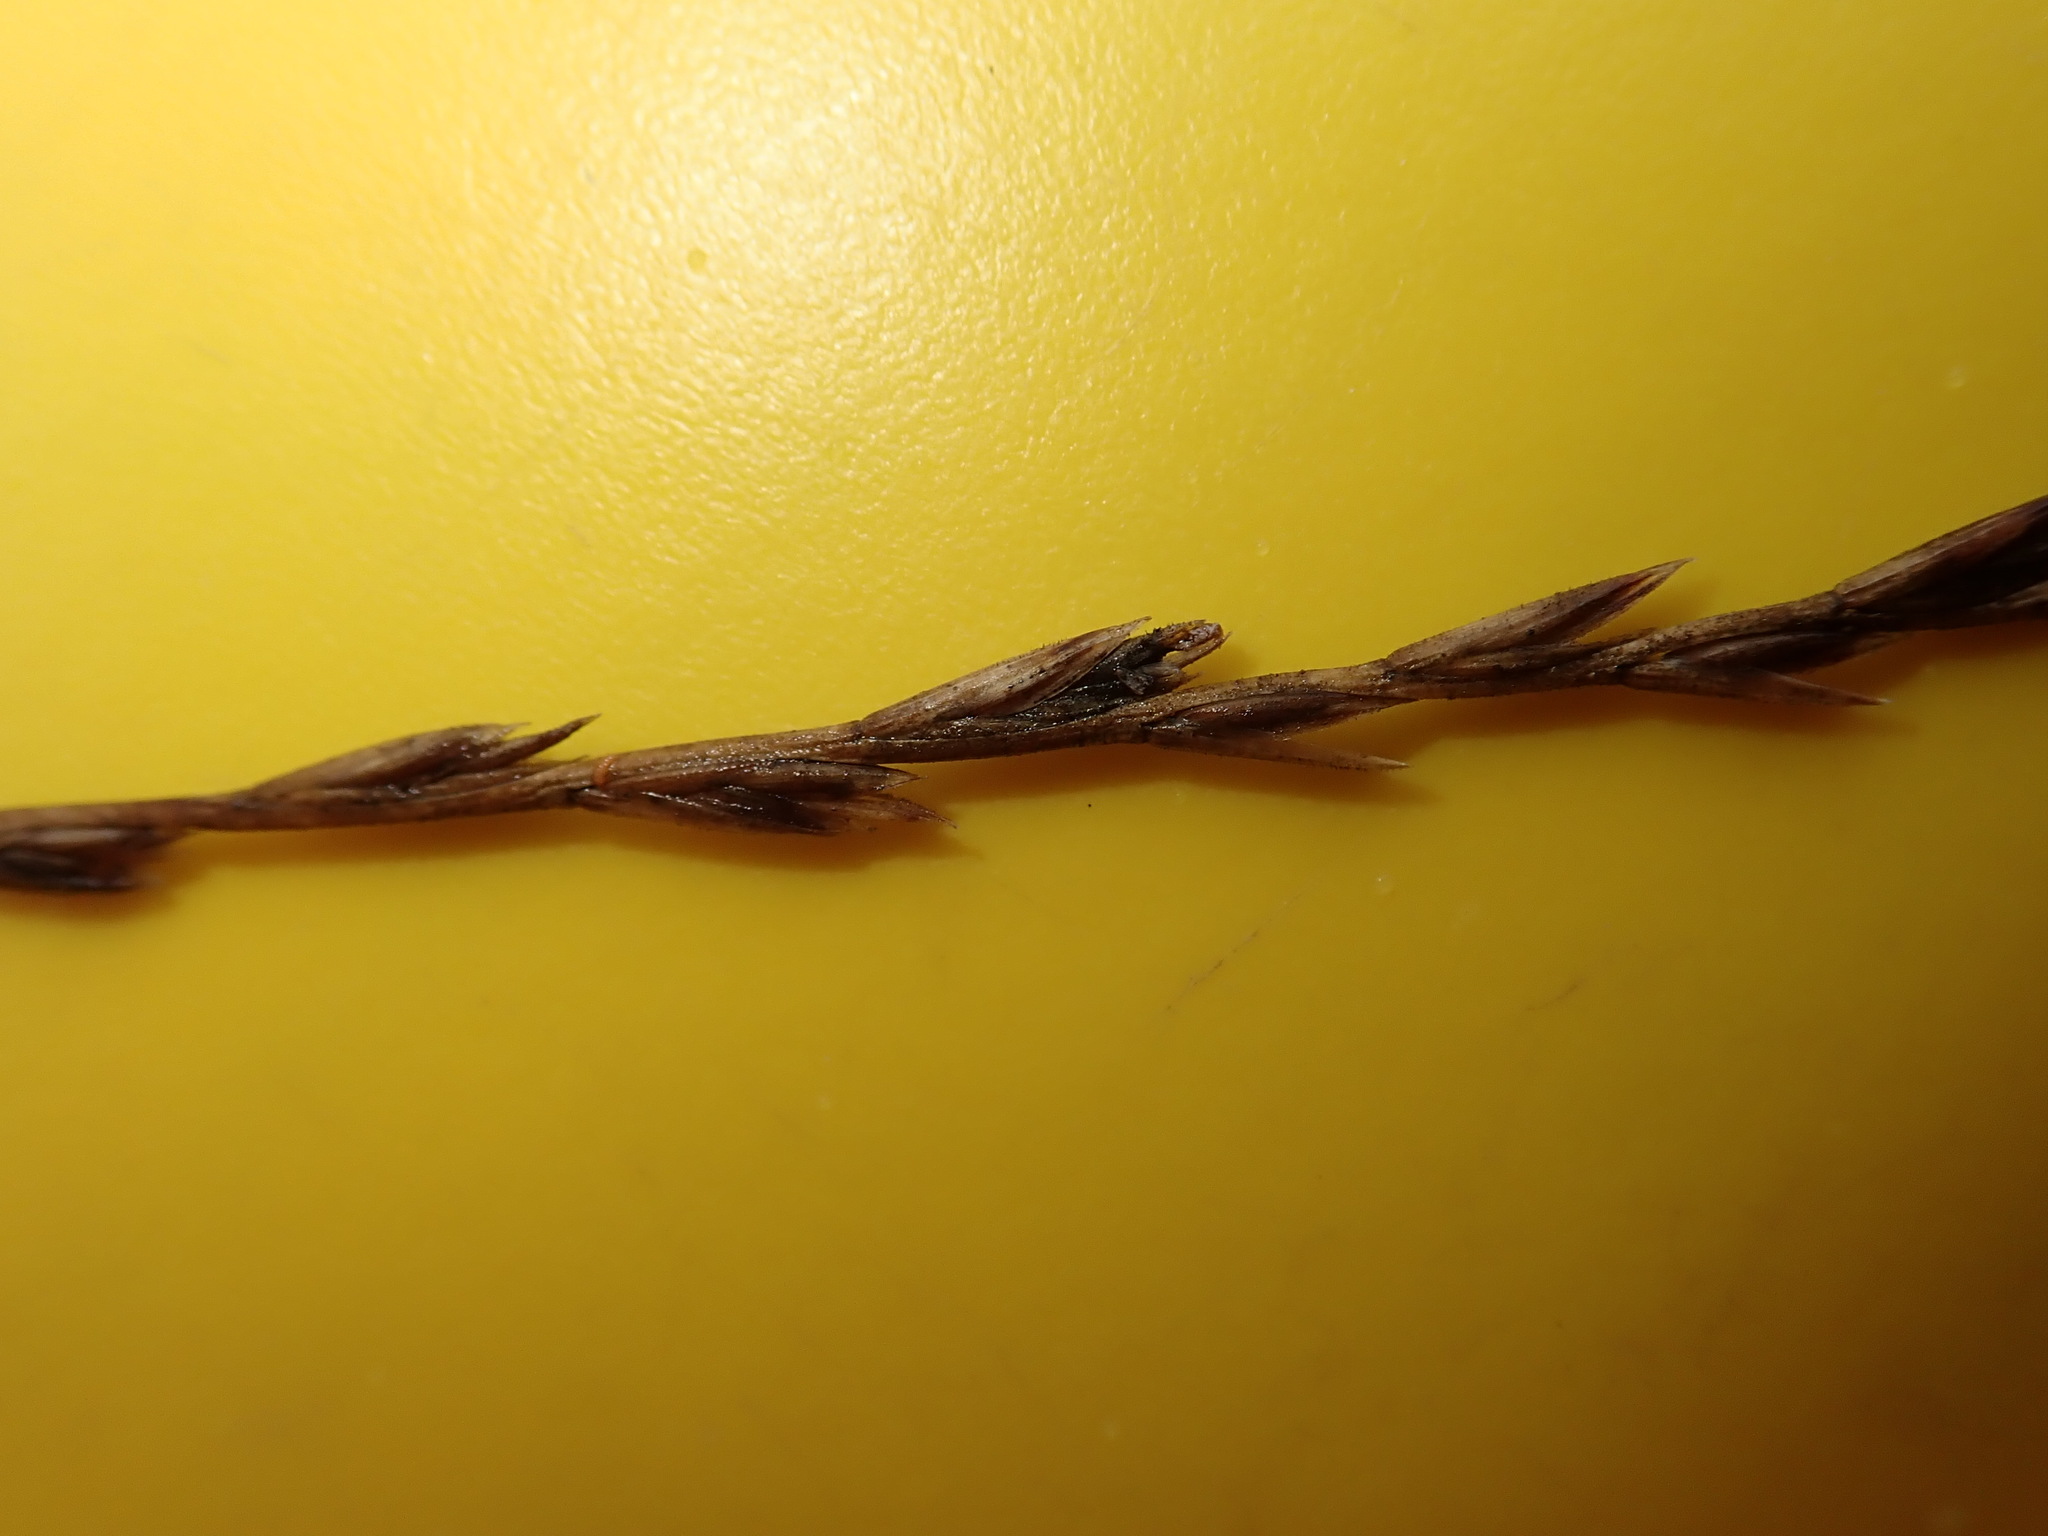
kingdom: Plantae
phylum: Tracheophyta
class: Liliopsida
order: Poales
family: Poaceae
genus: Lolium
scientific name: Lolium perenne
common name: Perennial ryegrass
